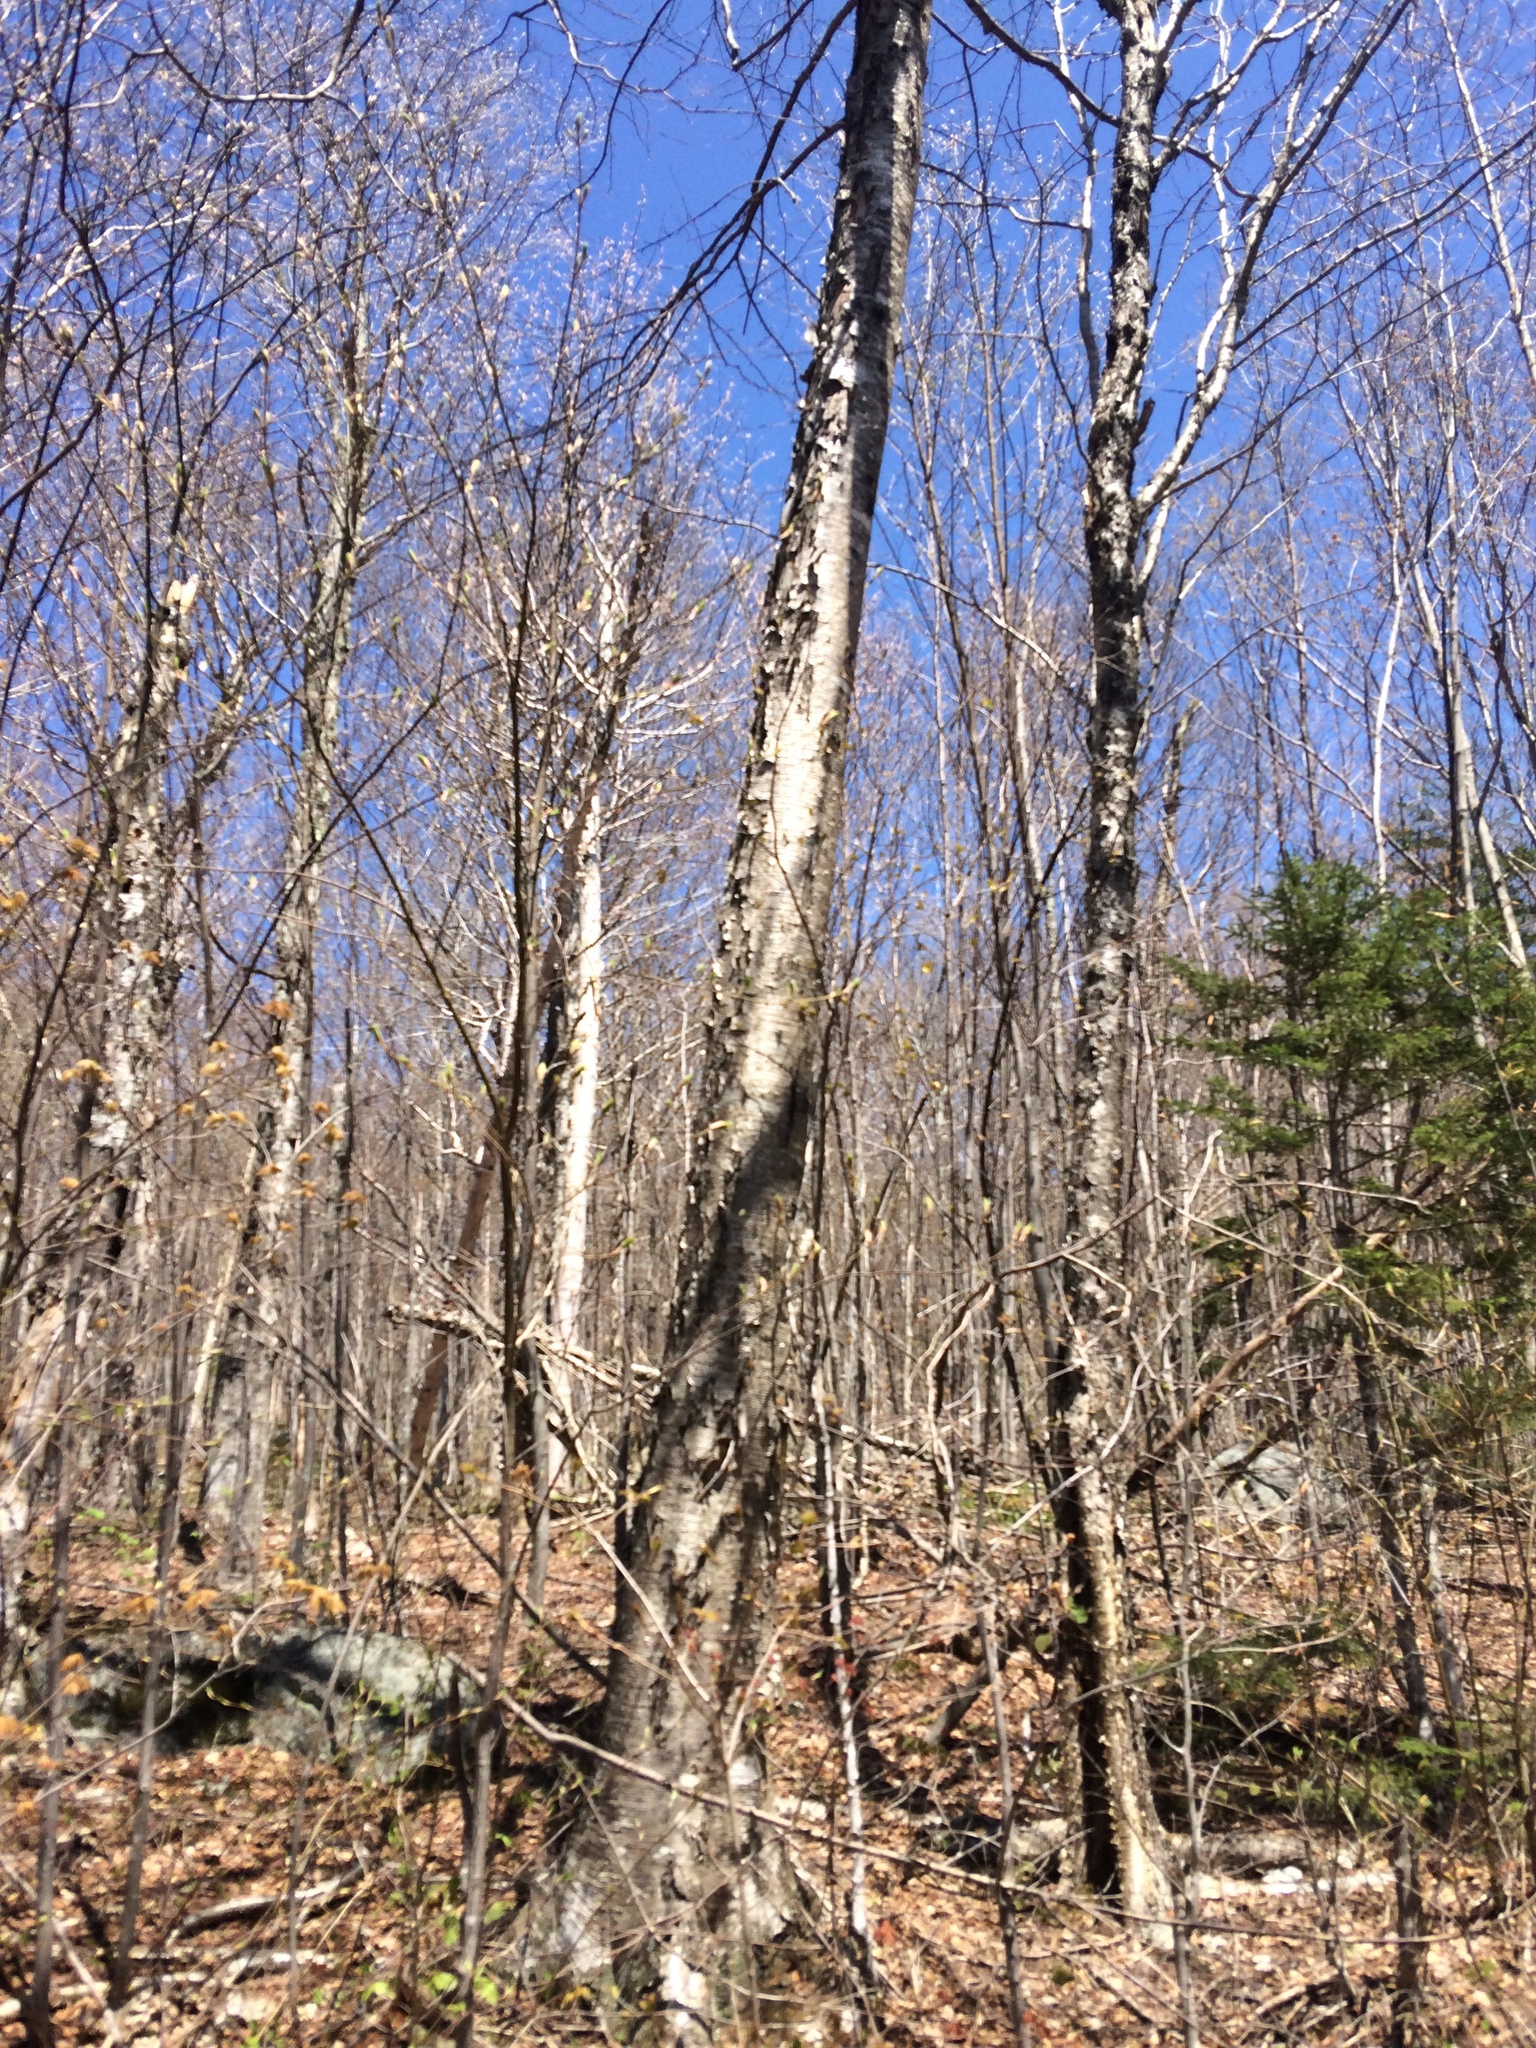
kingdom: Plantae
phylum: Tracheophyta
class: Magnoliopsida
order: Fagales
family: Betulaceae
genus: Betula
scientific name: Betula alleghaniensis
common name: Yellow birch
